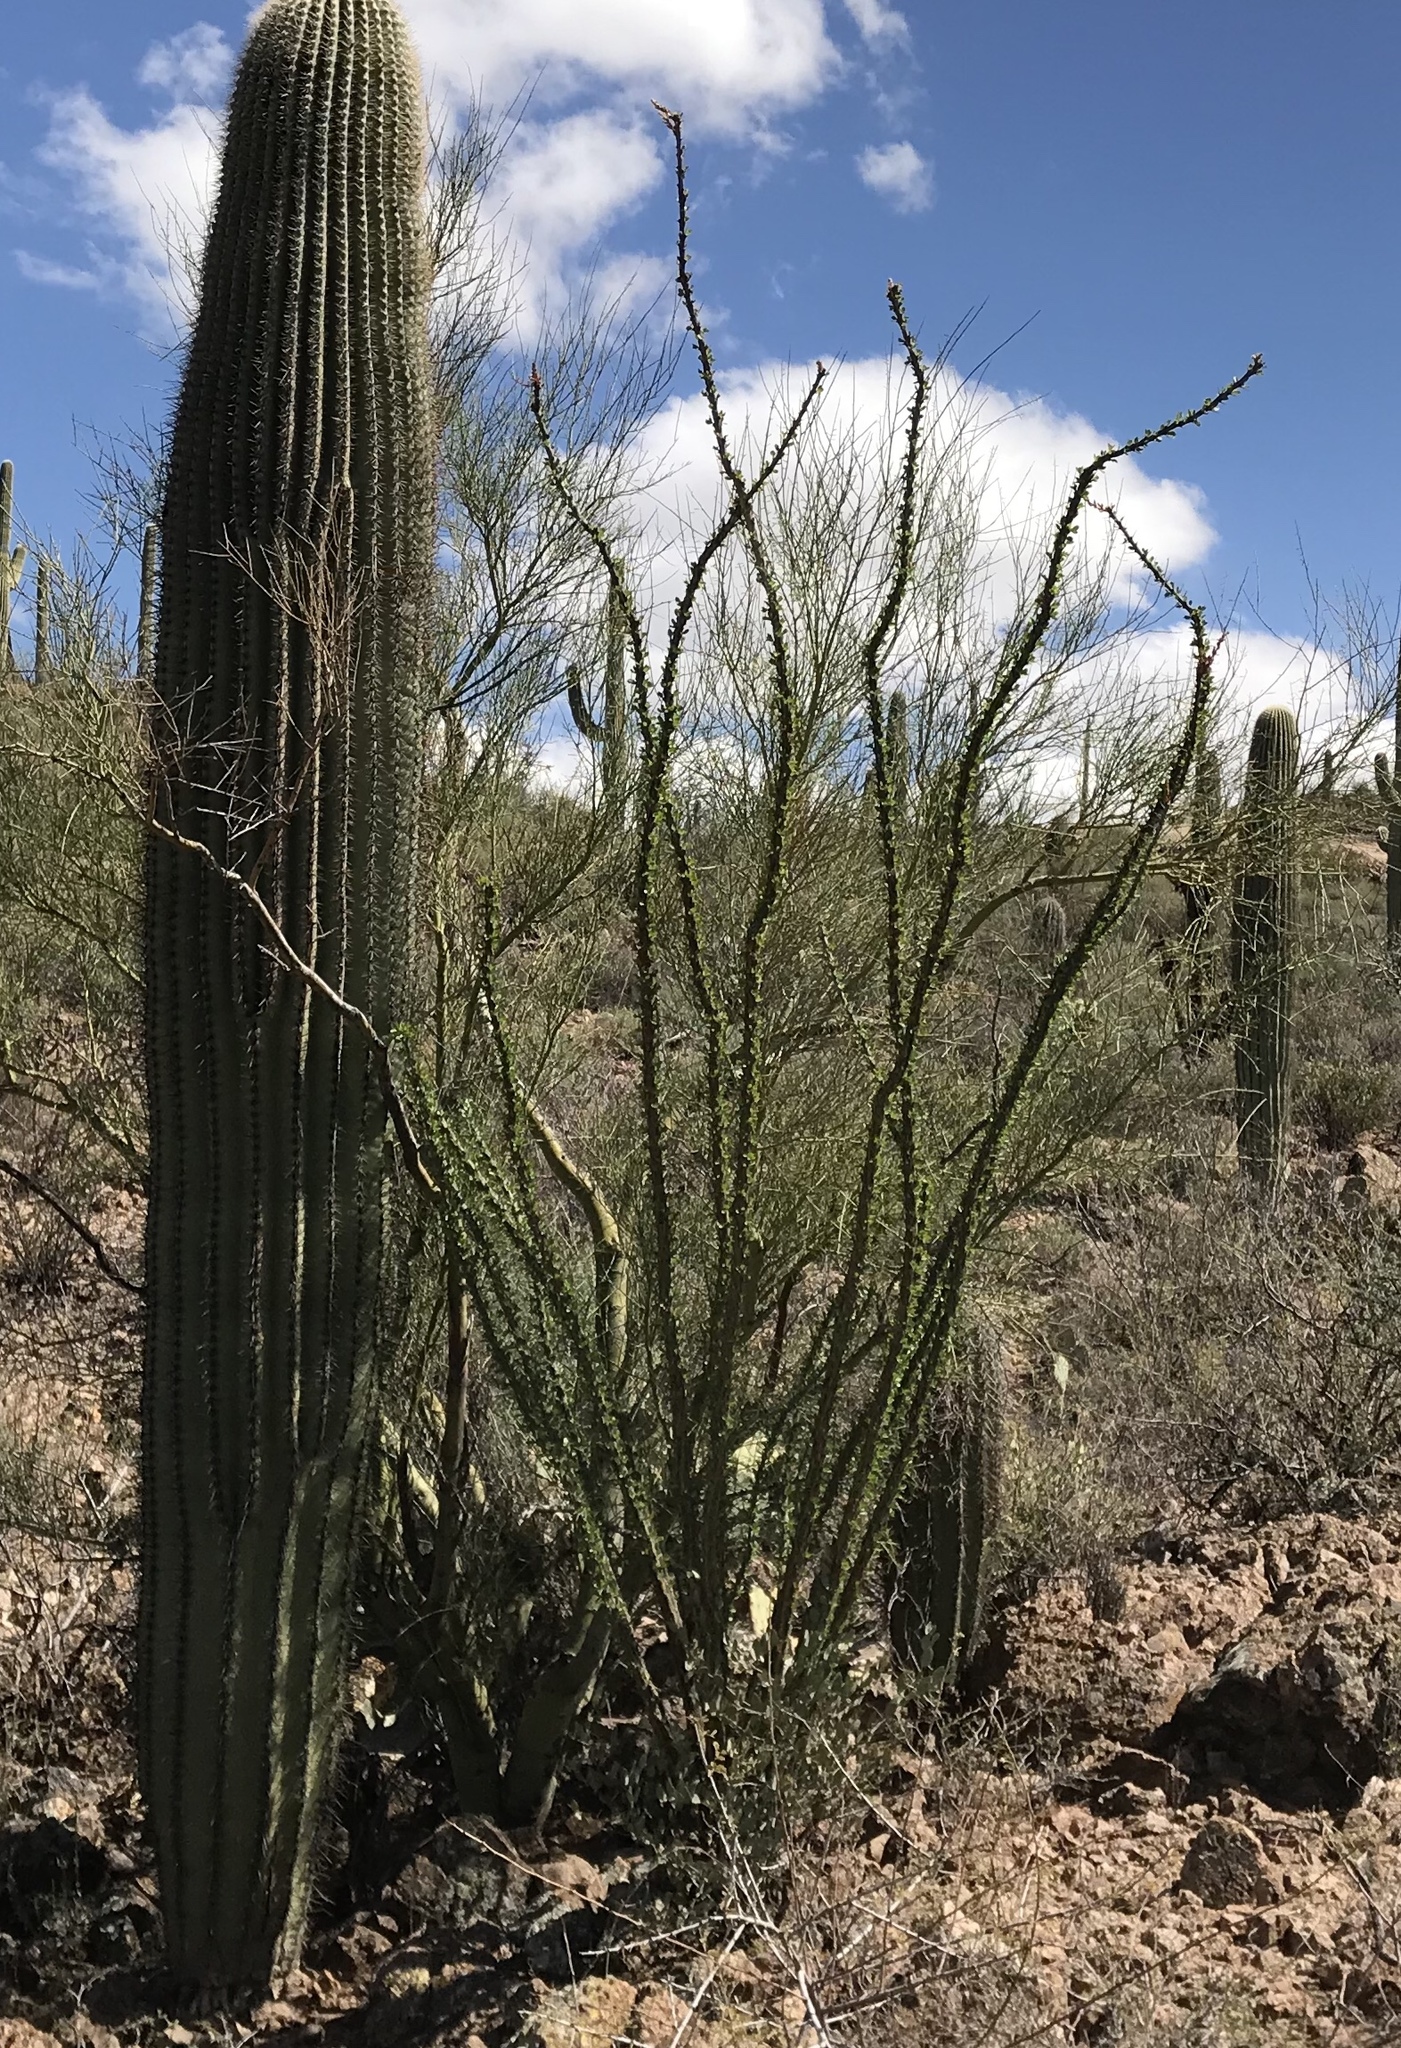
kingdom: Plantae
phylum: Tracheophyta
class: Magnoliopsida
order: Ericales
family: Fouquieriaceae
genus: Fouquieria
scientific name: Fouquieria splendens
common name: Vine-cactus
